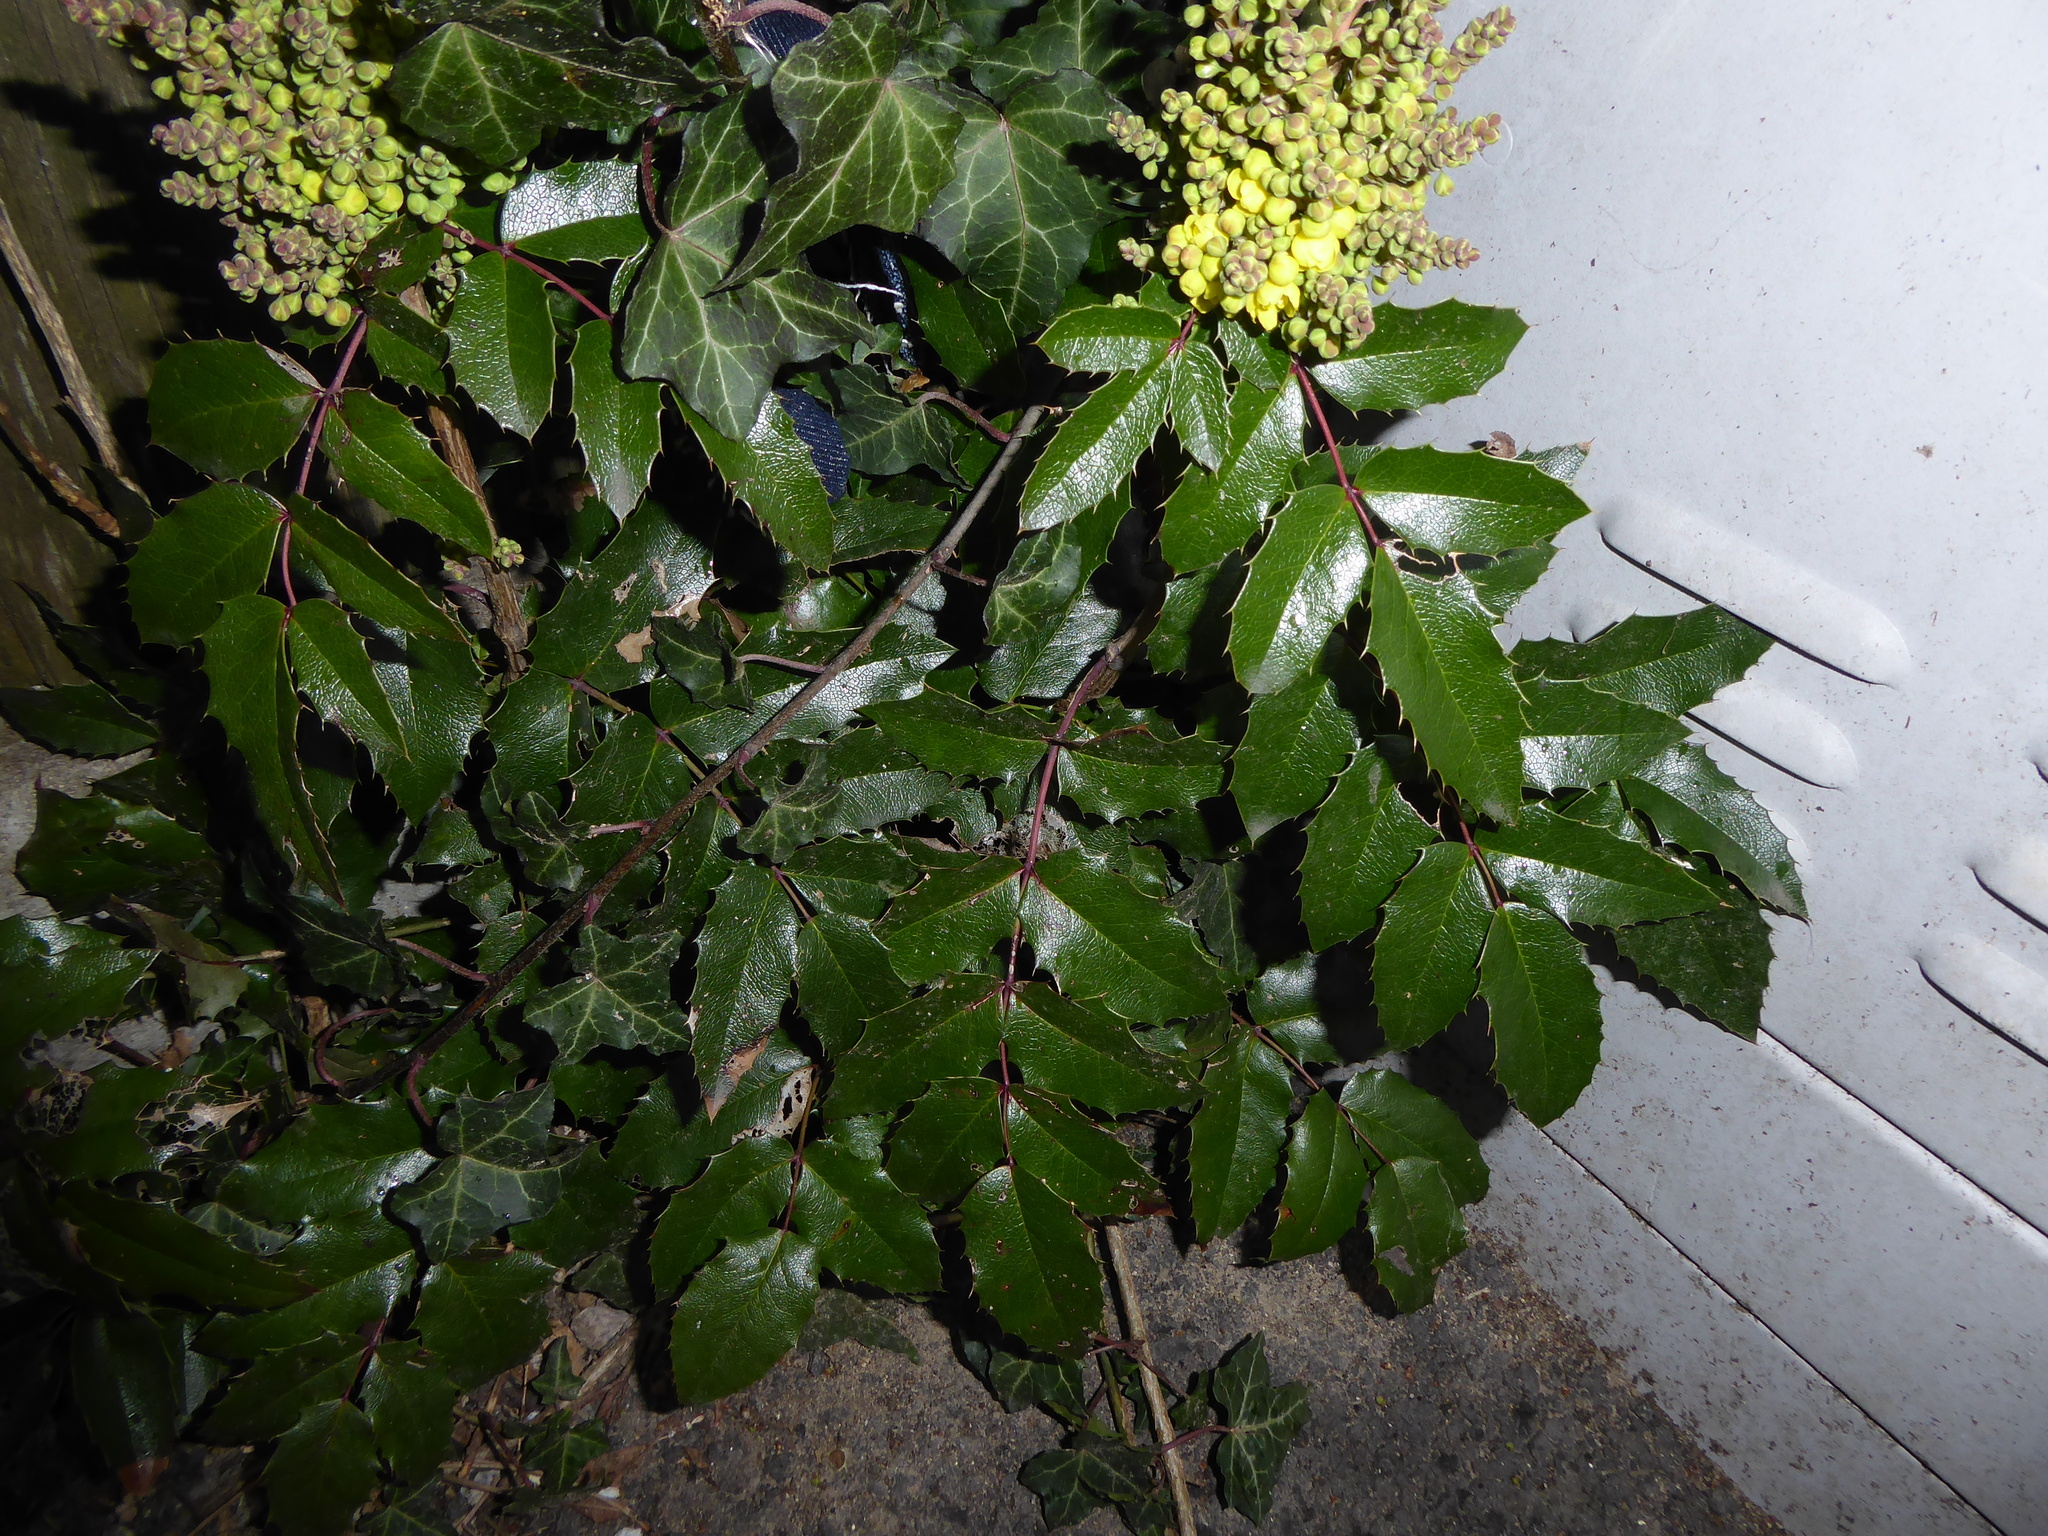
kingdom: Plantae
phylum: Tracheophyta
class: Magnoliopsida
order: Ranunculales
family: Berberidaceae
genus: Mahonia
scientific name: Mahonia aquifolium
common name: Oregon-grape
